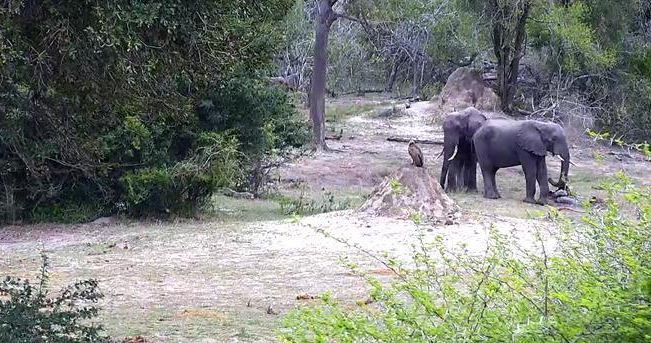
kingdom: Animalia
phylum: Chordata
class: Aves
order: Accipitriformes
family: Accipitridae
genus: Gyps
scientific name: Gyps africanus
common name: White-backed vulture
